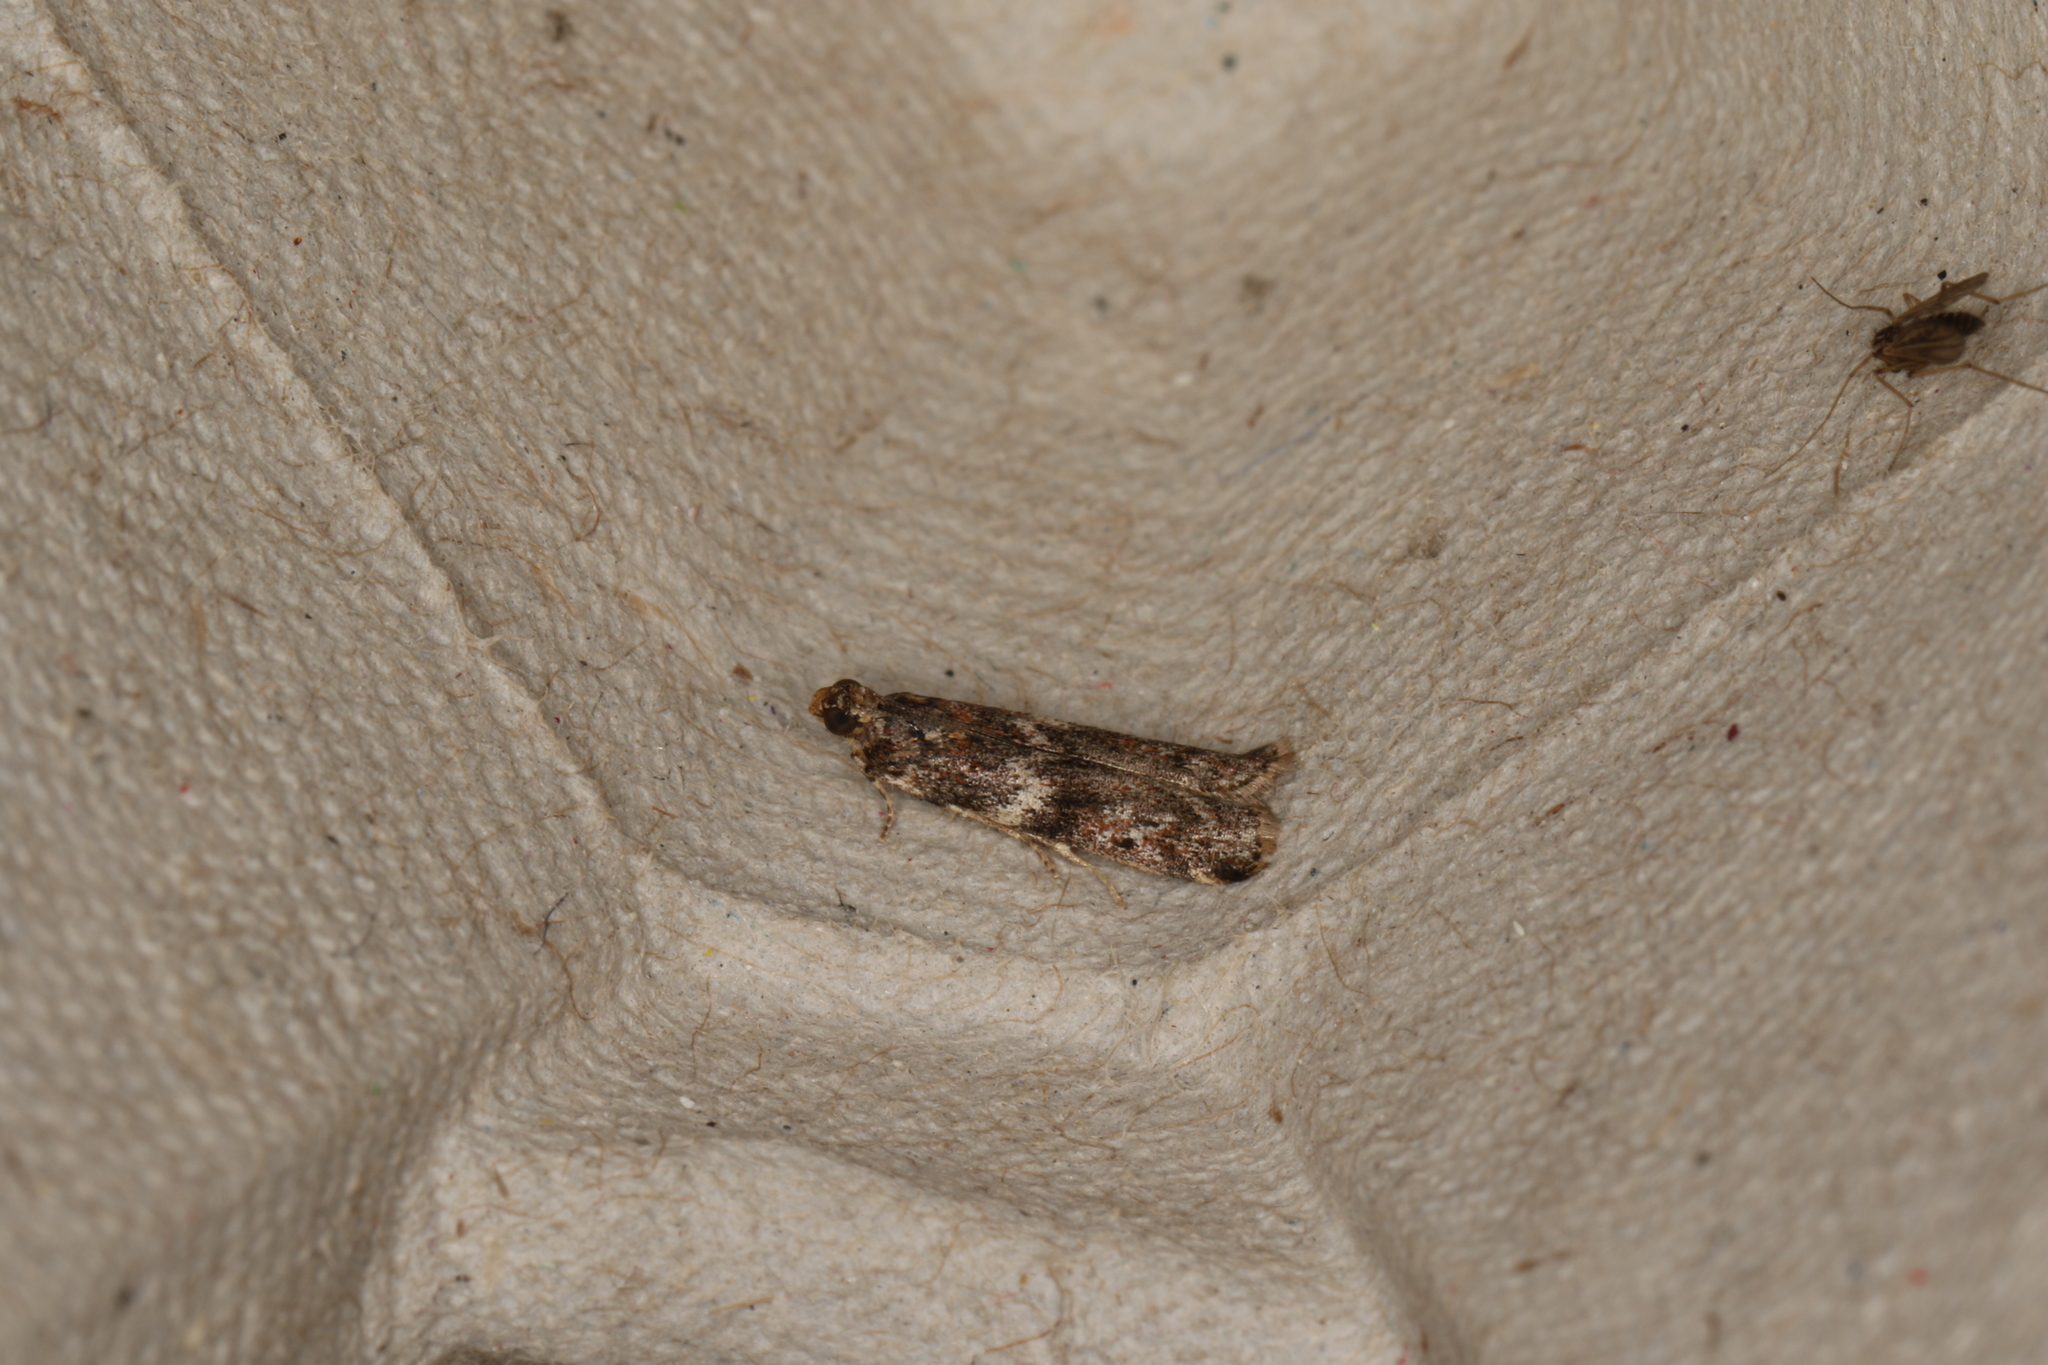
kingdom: Animalia
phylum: Arthropoda
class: Insecta
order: Lepidoptera
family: Pyralidae
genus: Ephestiopsis
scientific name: Ephestiopsis oenobarella
